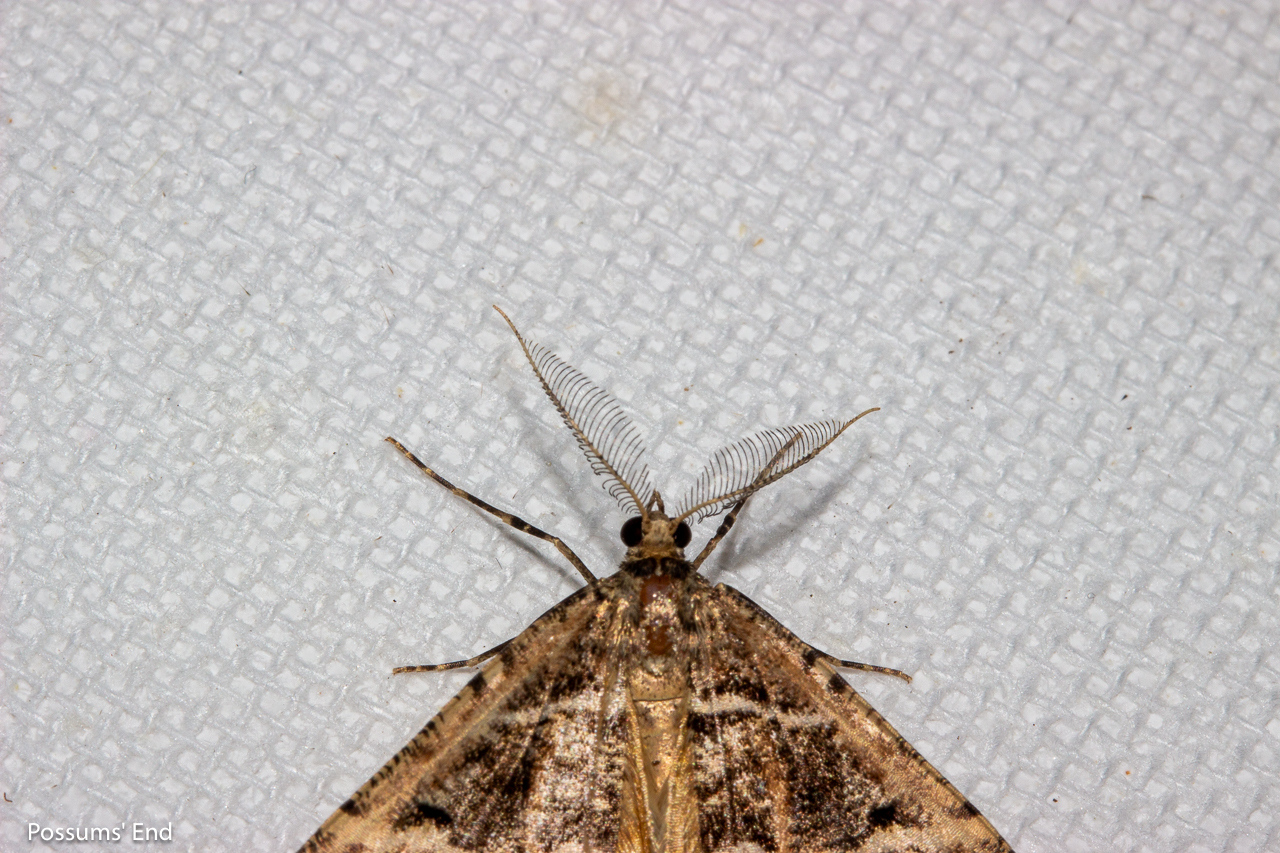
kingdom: Animalia
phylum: Arthropoda
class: Insecta
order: Lepidoptera
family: Geometridae
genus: Pseudocoremia
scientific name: Pseudocoremia melinata
